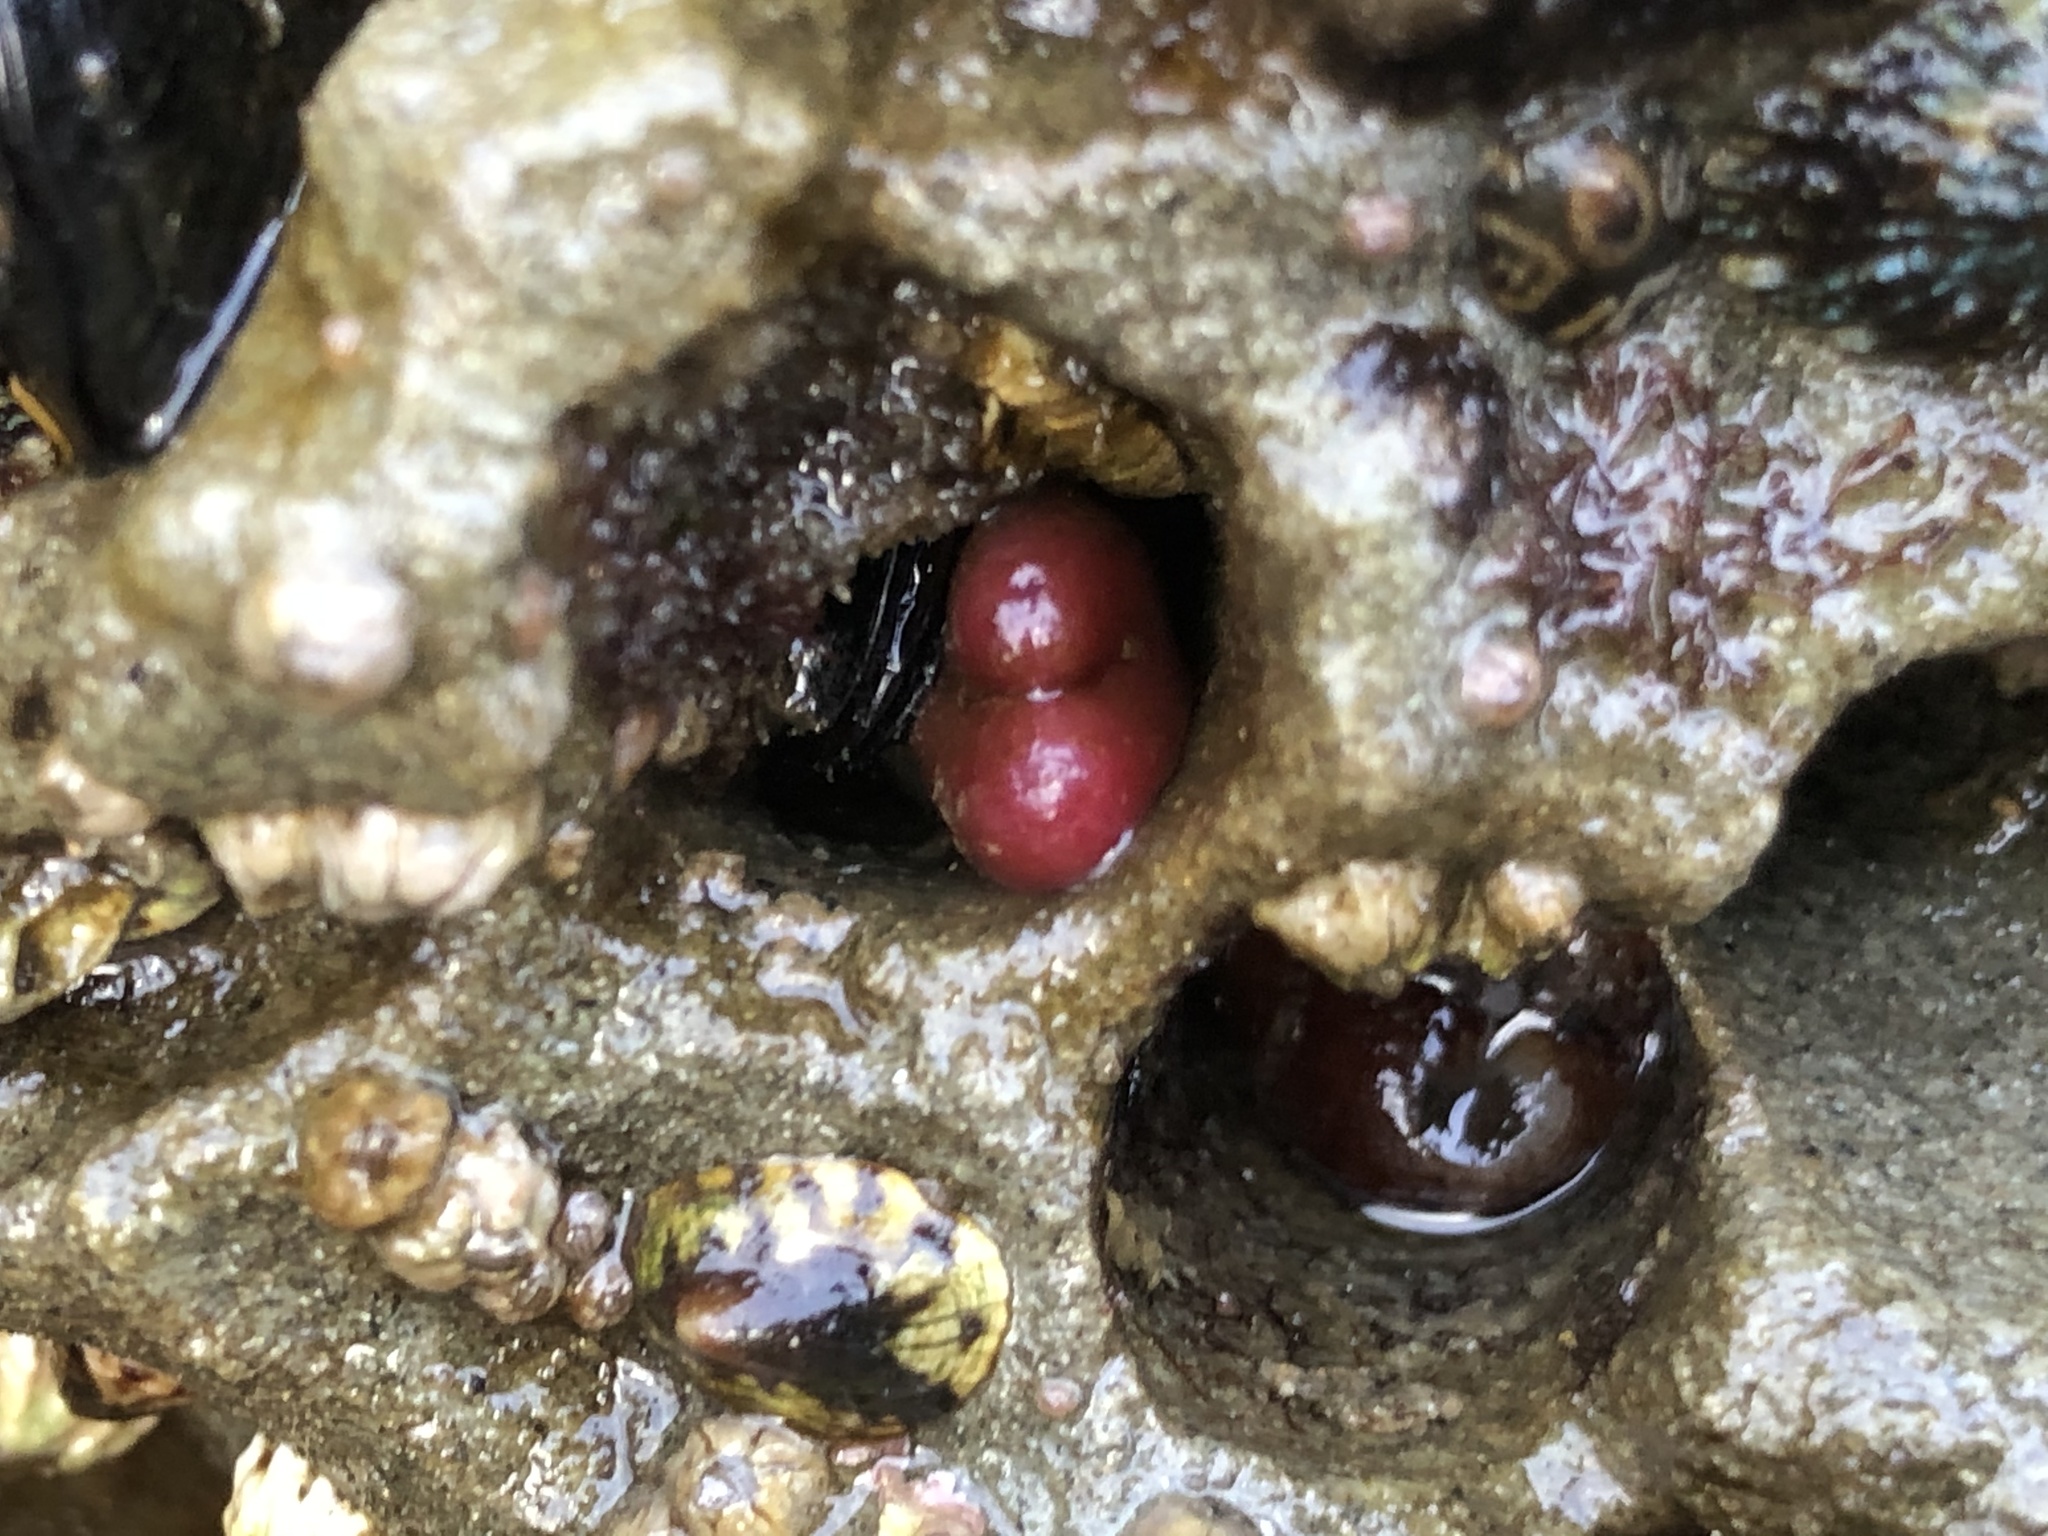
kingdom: Animalia
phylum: Mollusca
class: Bivalvia
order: Adapedonta
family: Hiatellidae
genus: Hiatella
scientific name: Hiatella arctica
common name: Arctic hiatella
